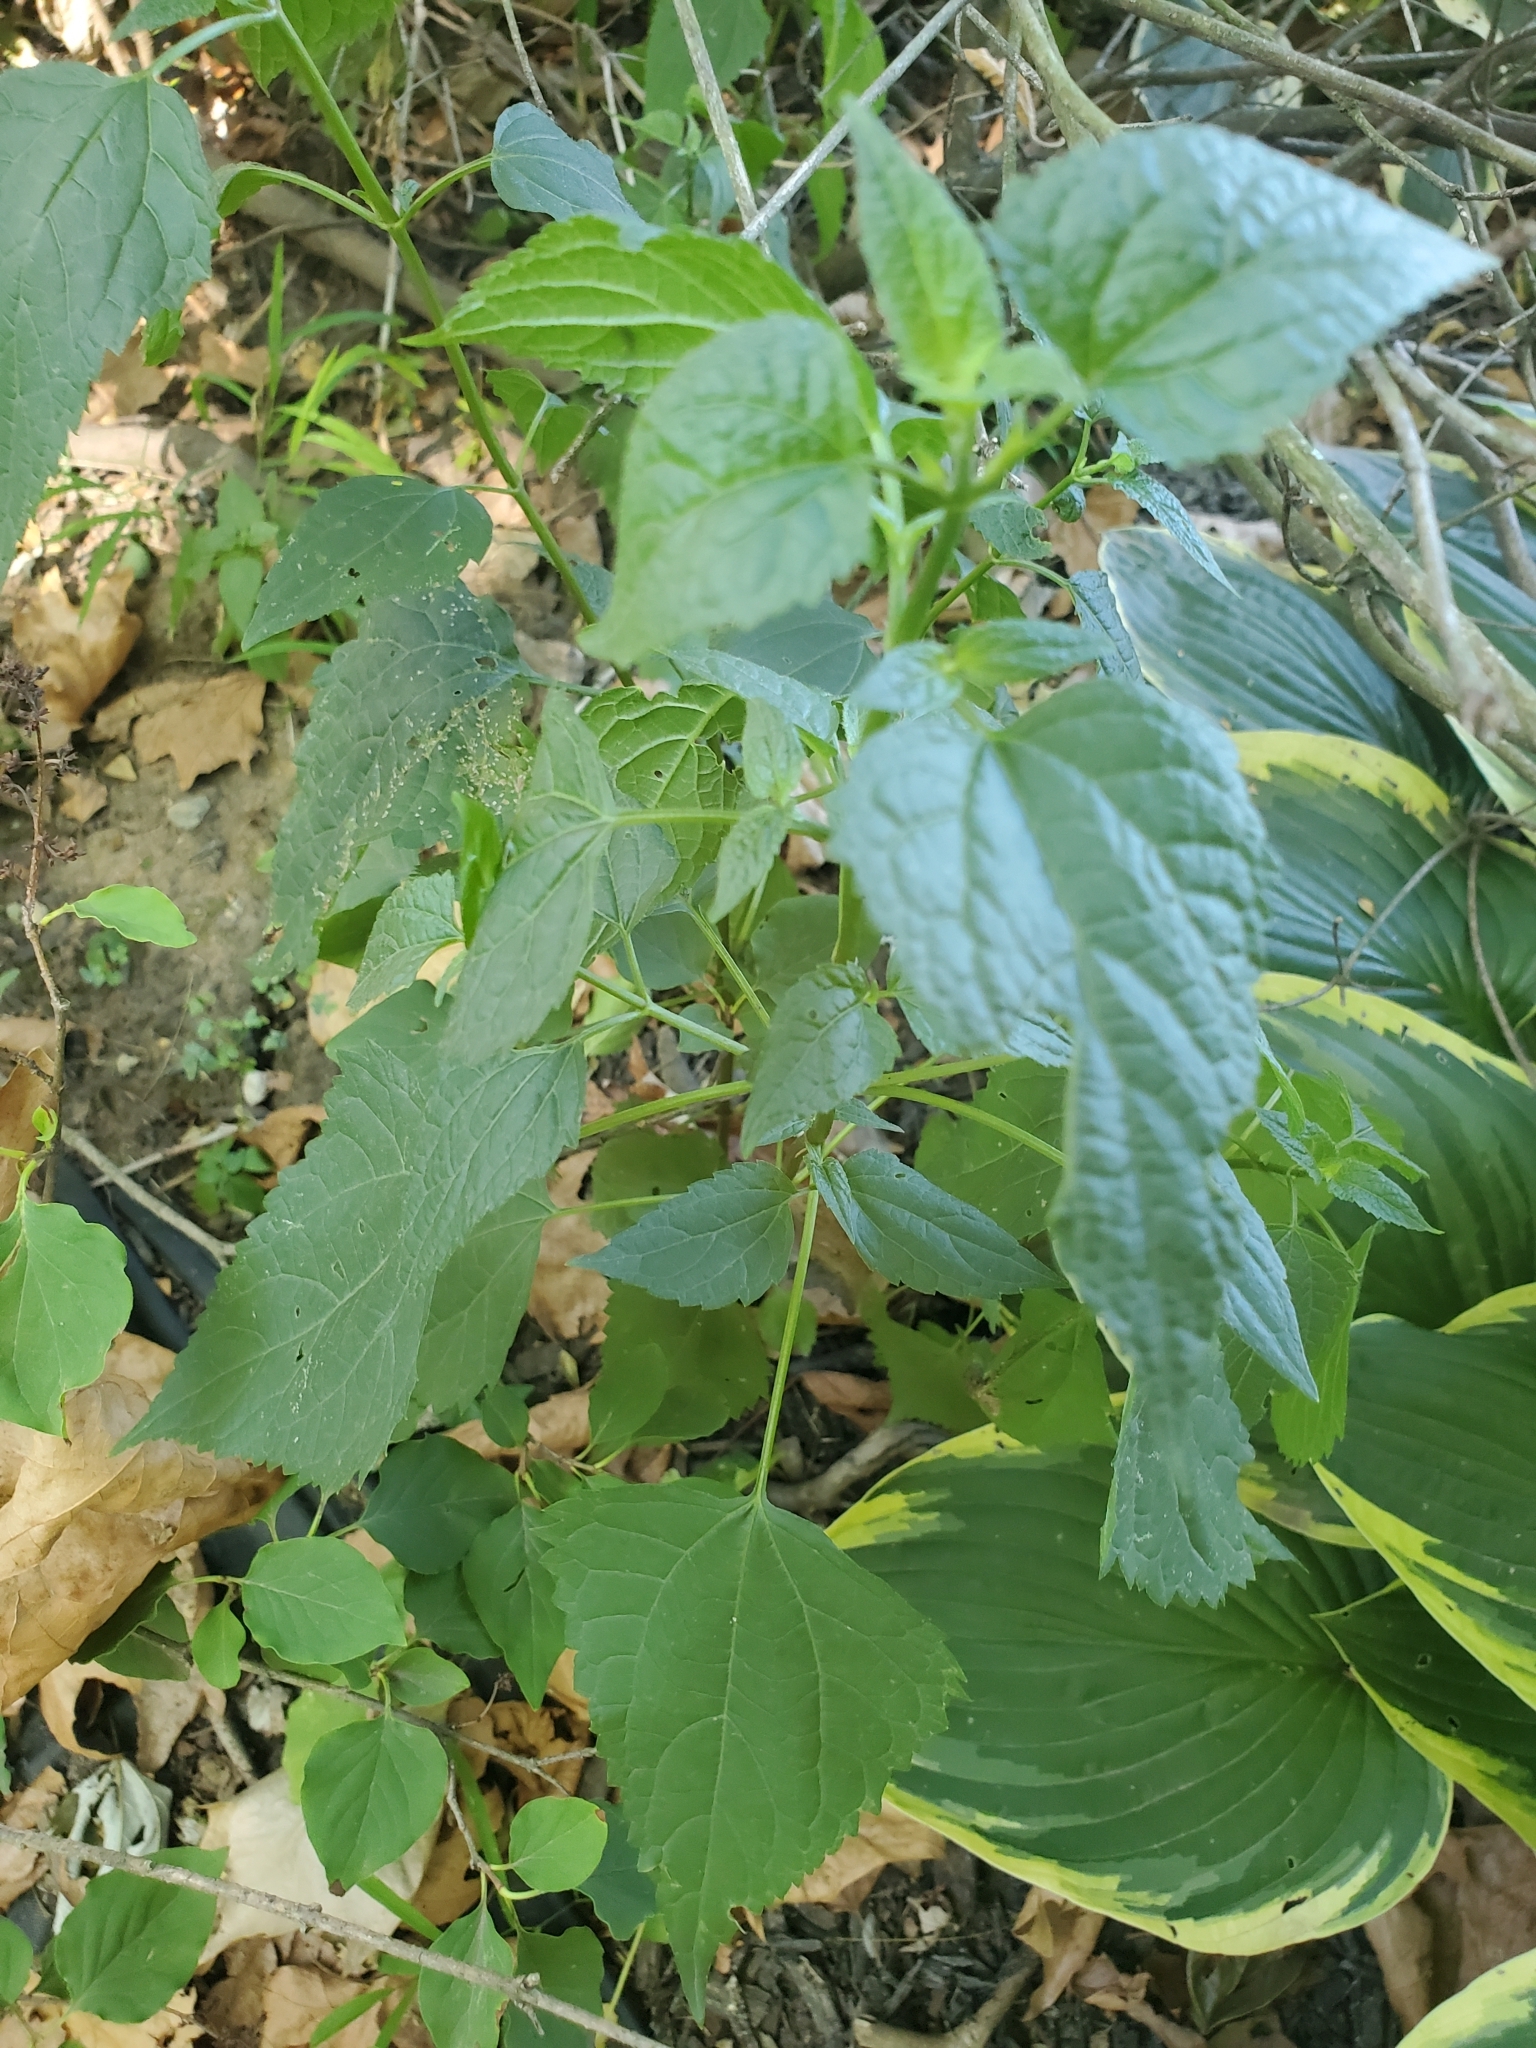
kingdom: Plantae
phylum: Tracheophyta
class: Magnoliopsida
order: Asterales
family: Asteraceae
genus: Ageratina
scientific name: Ageratina altissima
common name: White snakeroot
